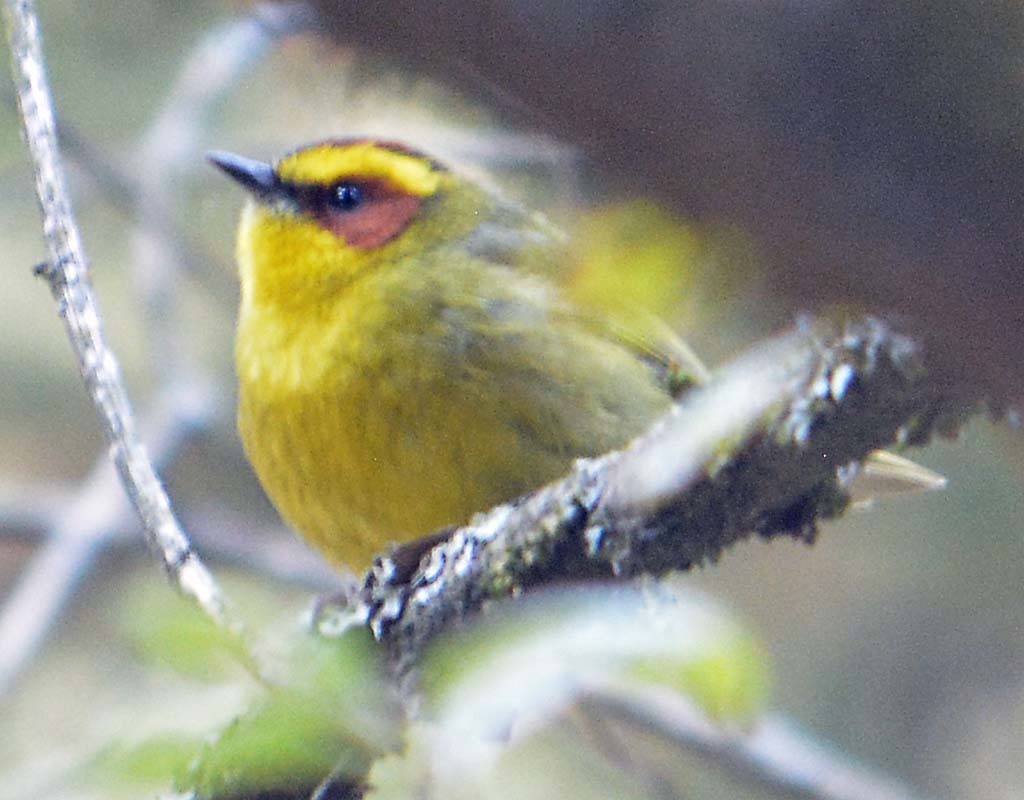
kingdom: Animalia
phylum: Chordata
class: Aves
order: Passeriformes
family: Parulidae
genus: Basileuterus
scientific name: Basileuterus belli
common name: Golden-browed warbler
